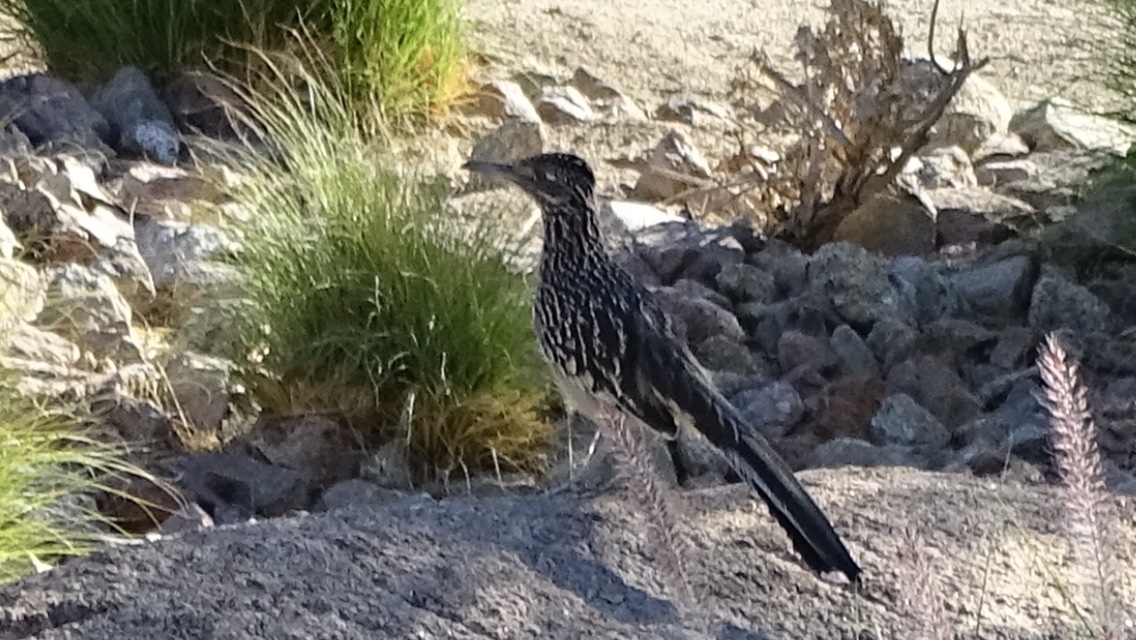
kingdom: Animalia
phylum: Chordata
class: Aves
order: Cuculiformes
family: Cuculidae
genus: Geococcyx
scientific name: Geococcyx californianus
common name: Greater roadrunner
